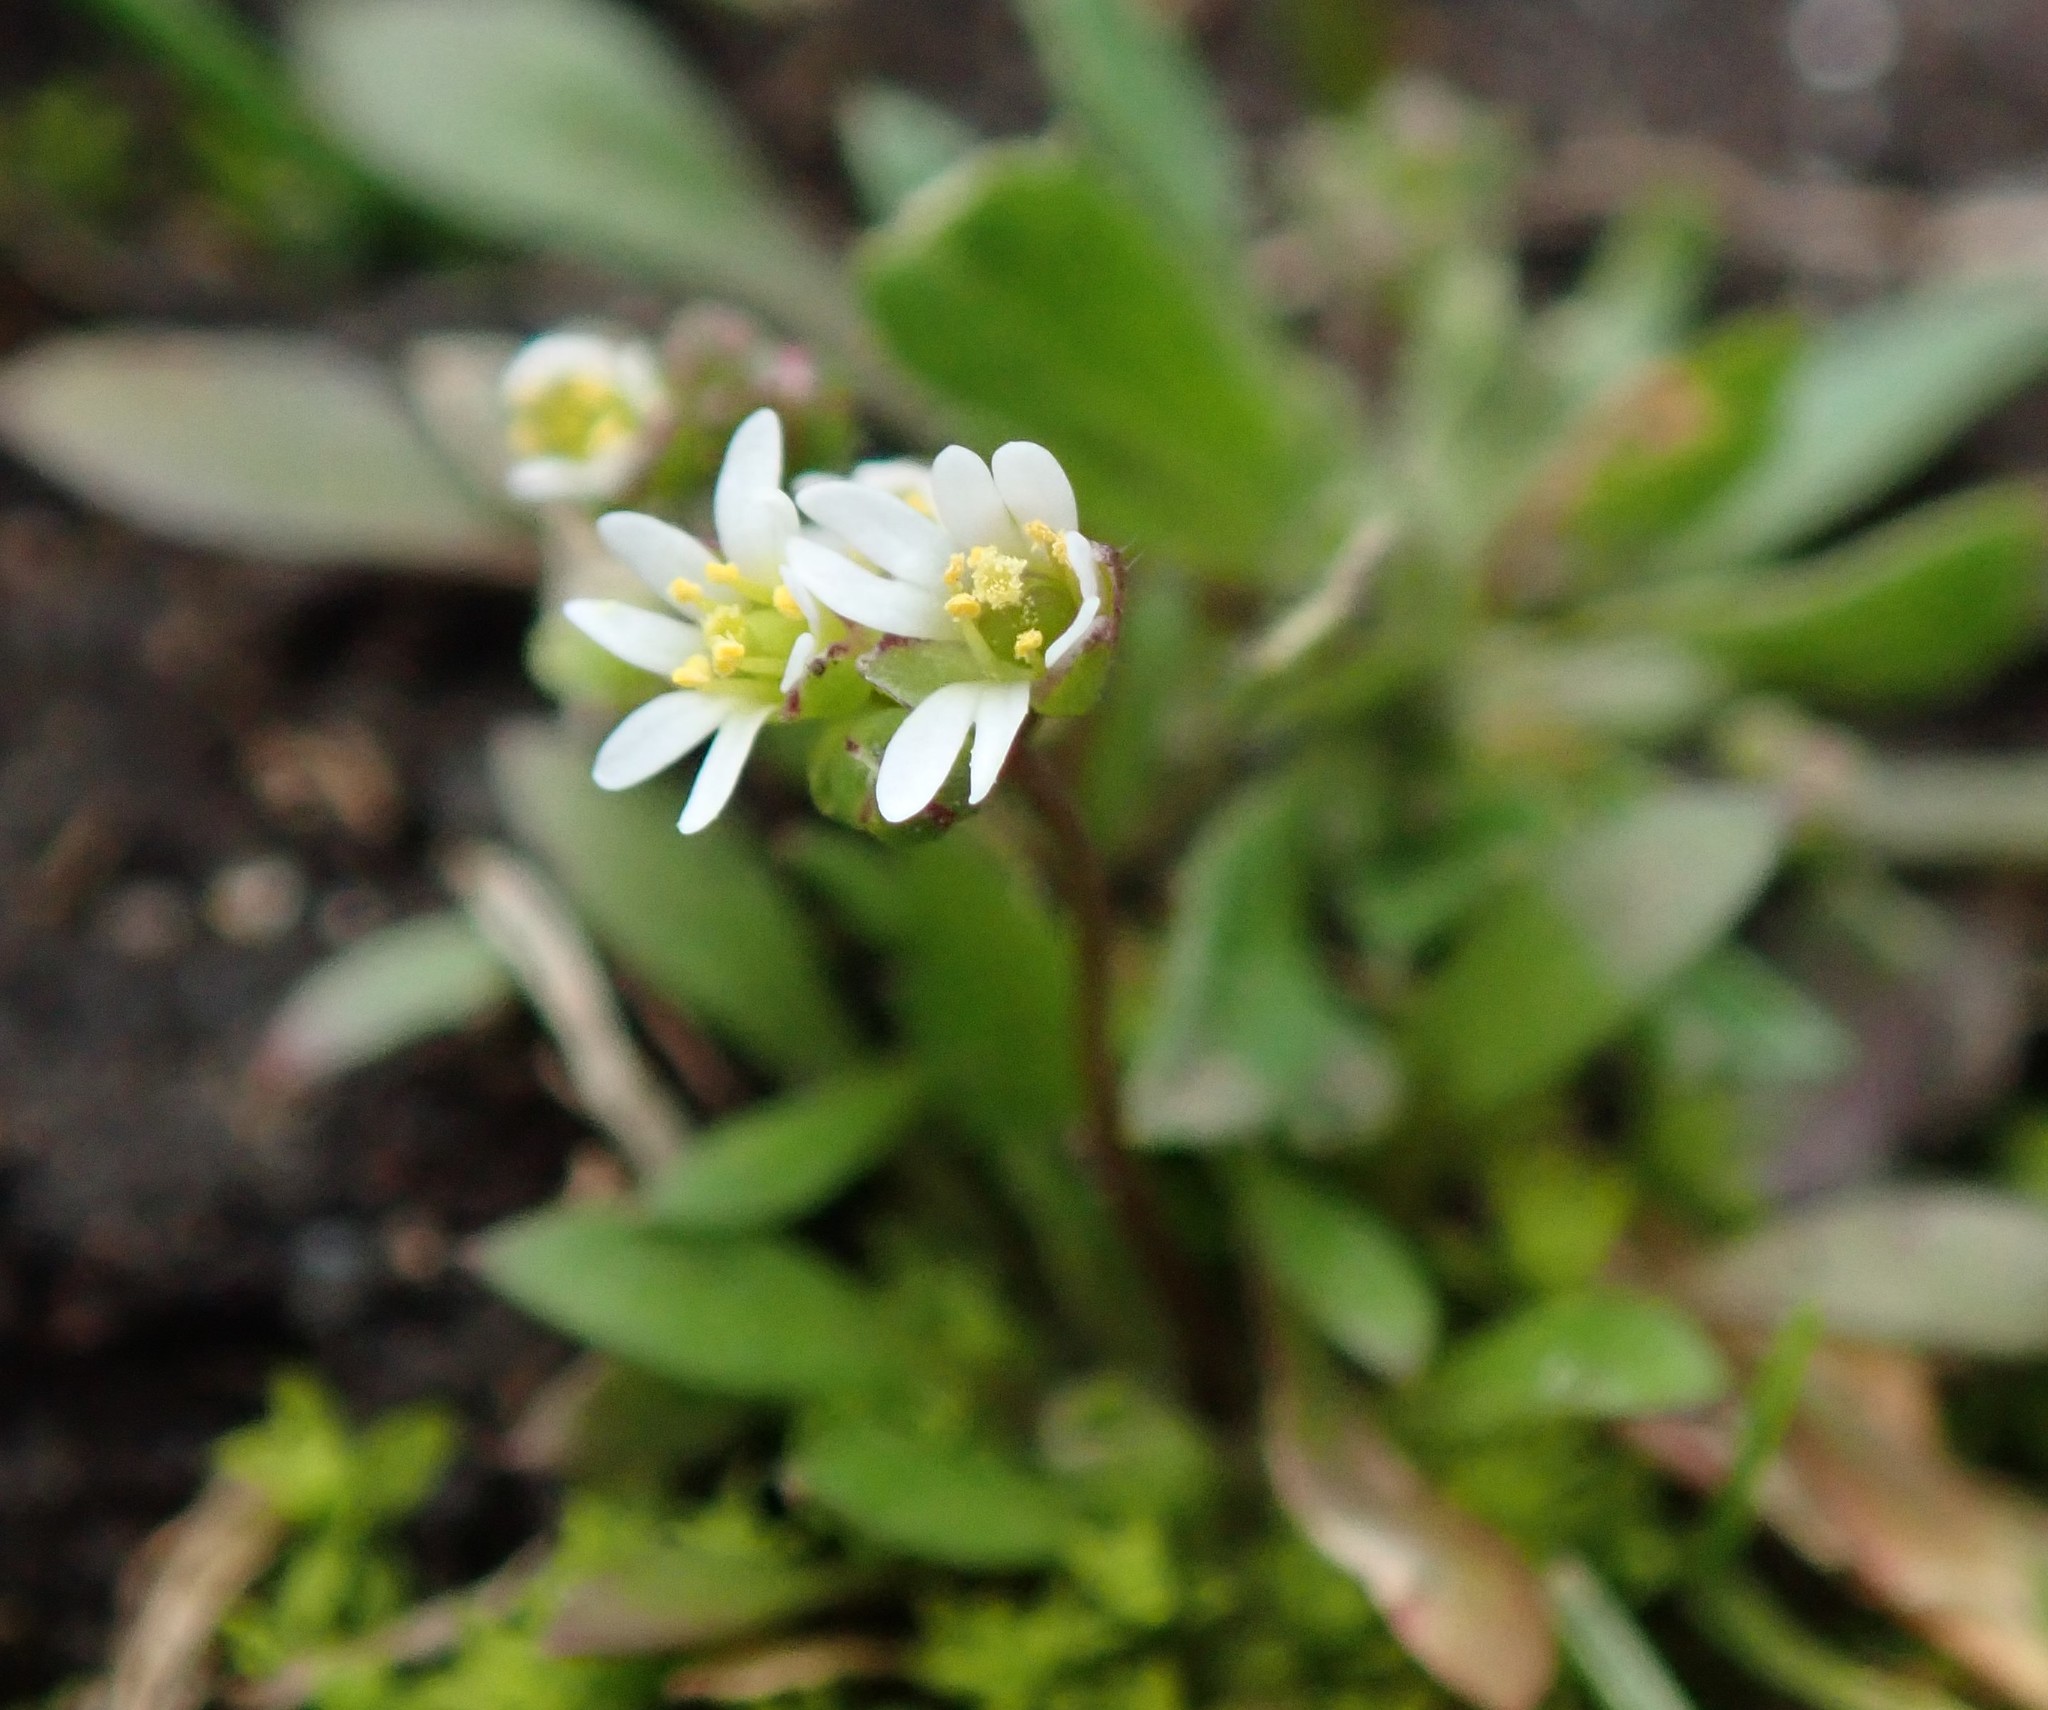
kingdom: Plantae
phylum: Tracheophyta
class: Magnoliopsida
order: Brassicales
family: Brassicaceae
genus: Draba
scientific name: Draba verna
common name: Spring draba
